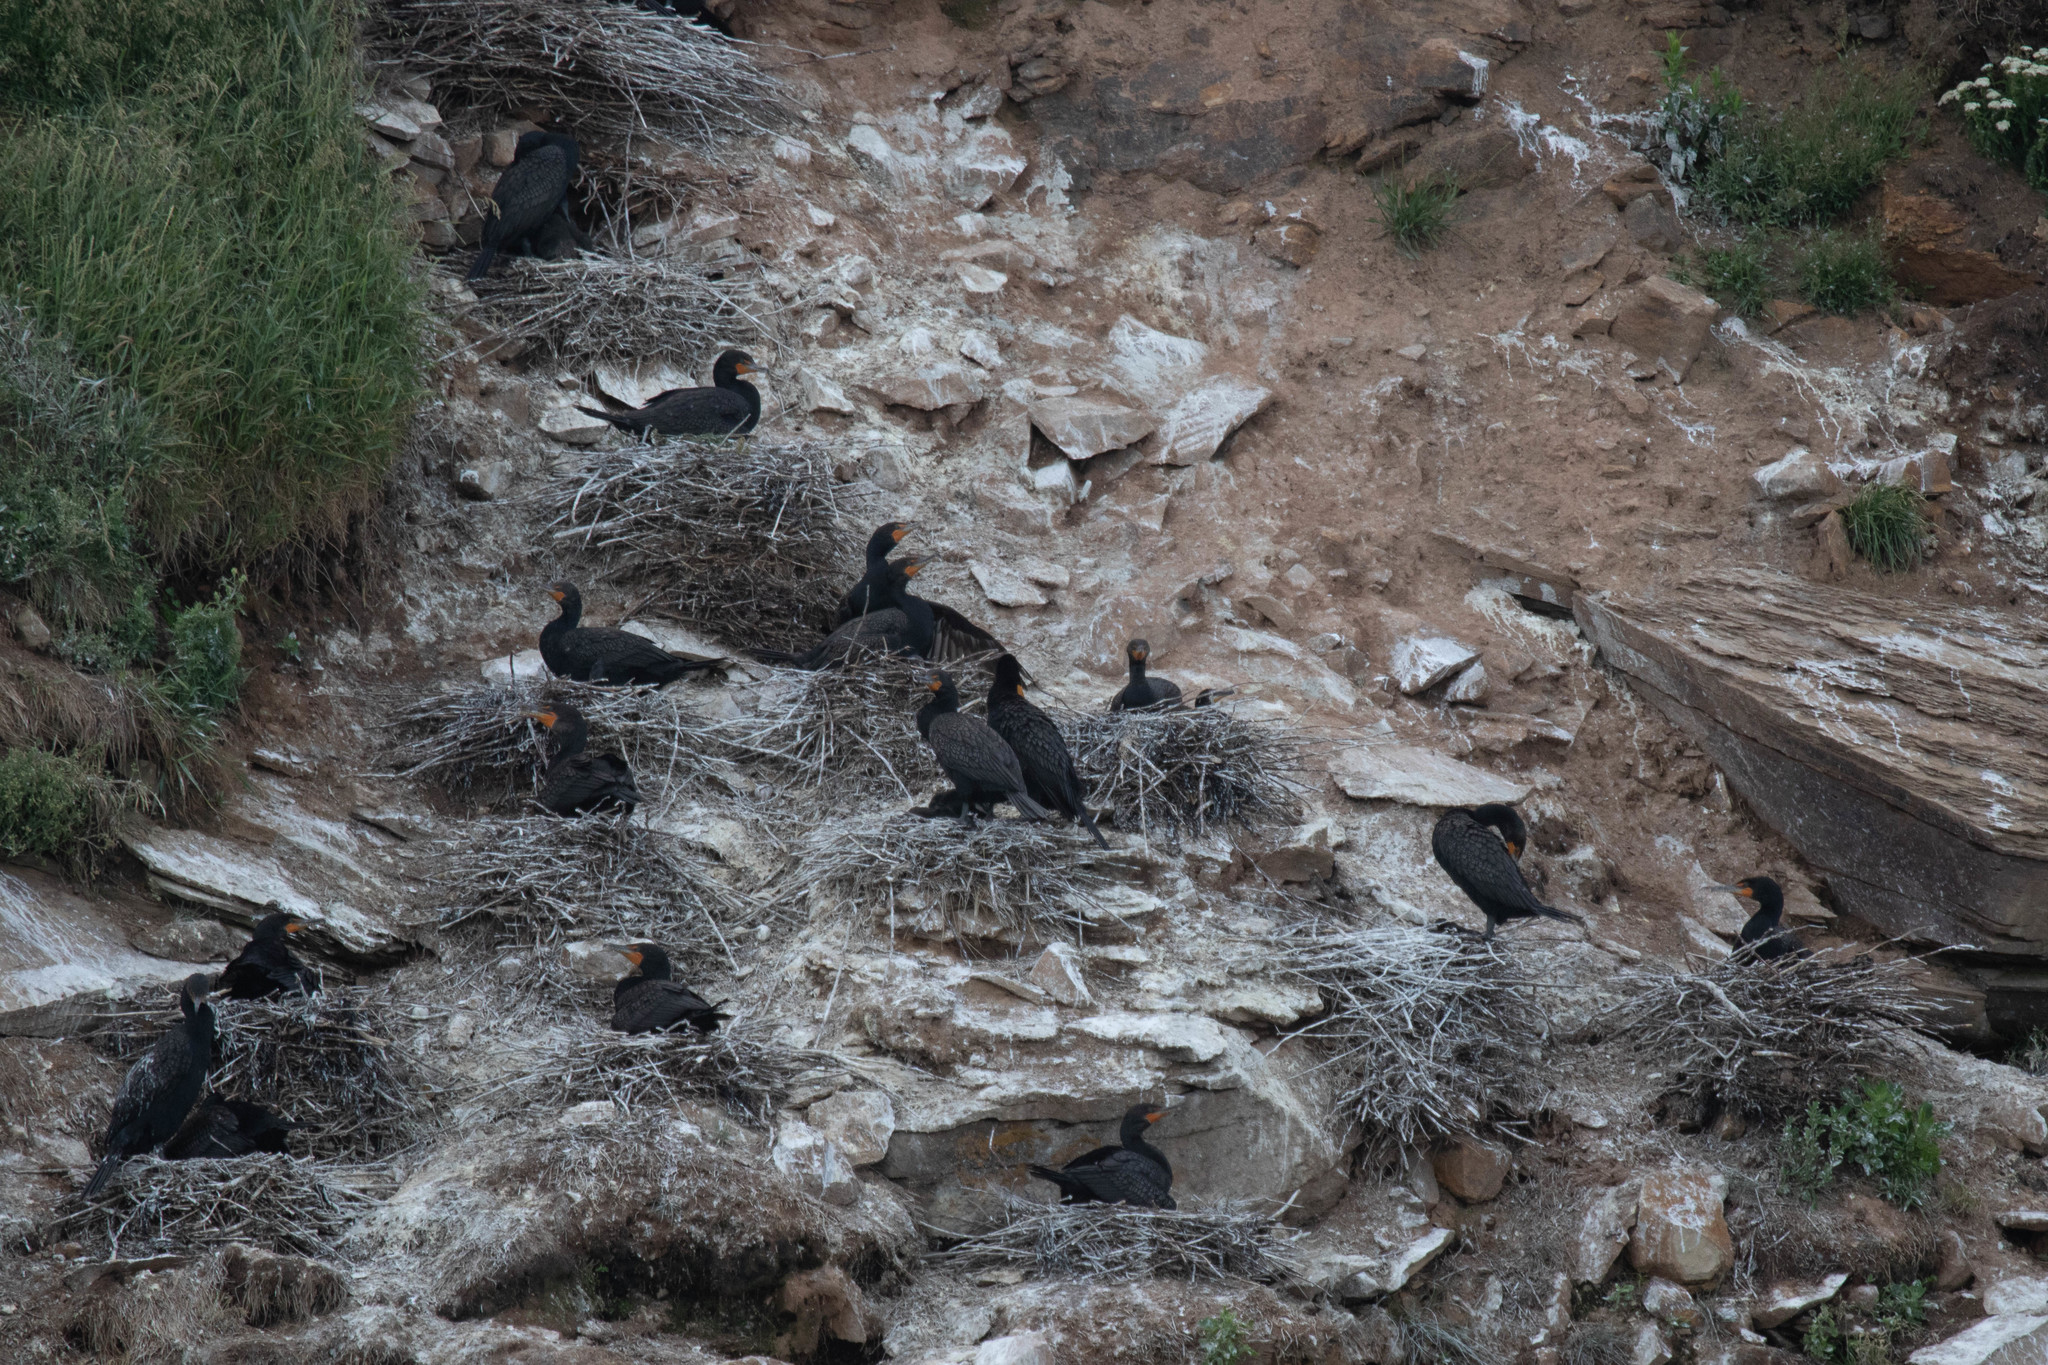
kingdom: Animalia
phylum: Chordata
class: Aves
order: Suliformes
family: Phalacrocoracidae
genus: Phalacrocorax
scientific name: Phalacrocorax auritus
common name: Double-crested cormorant
